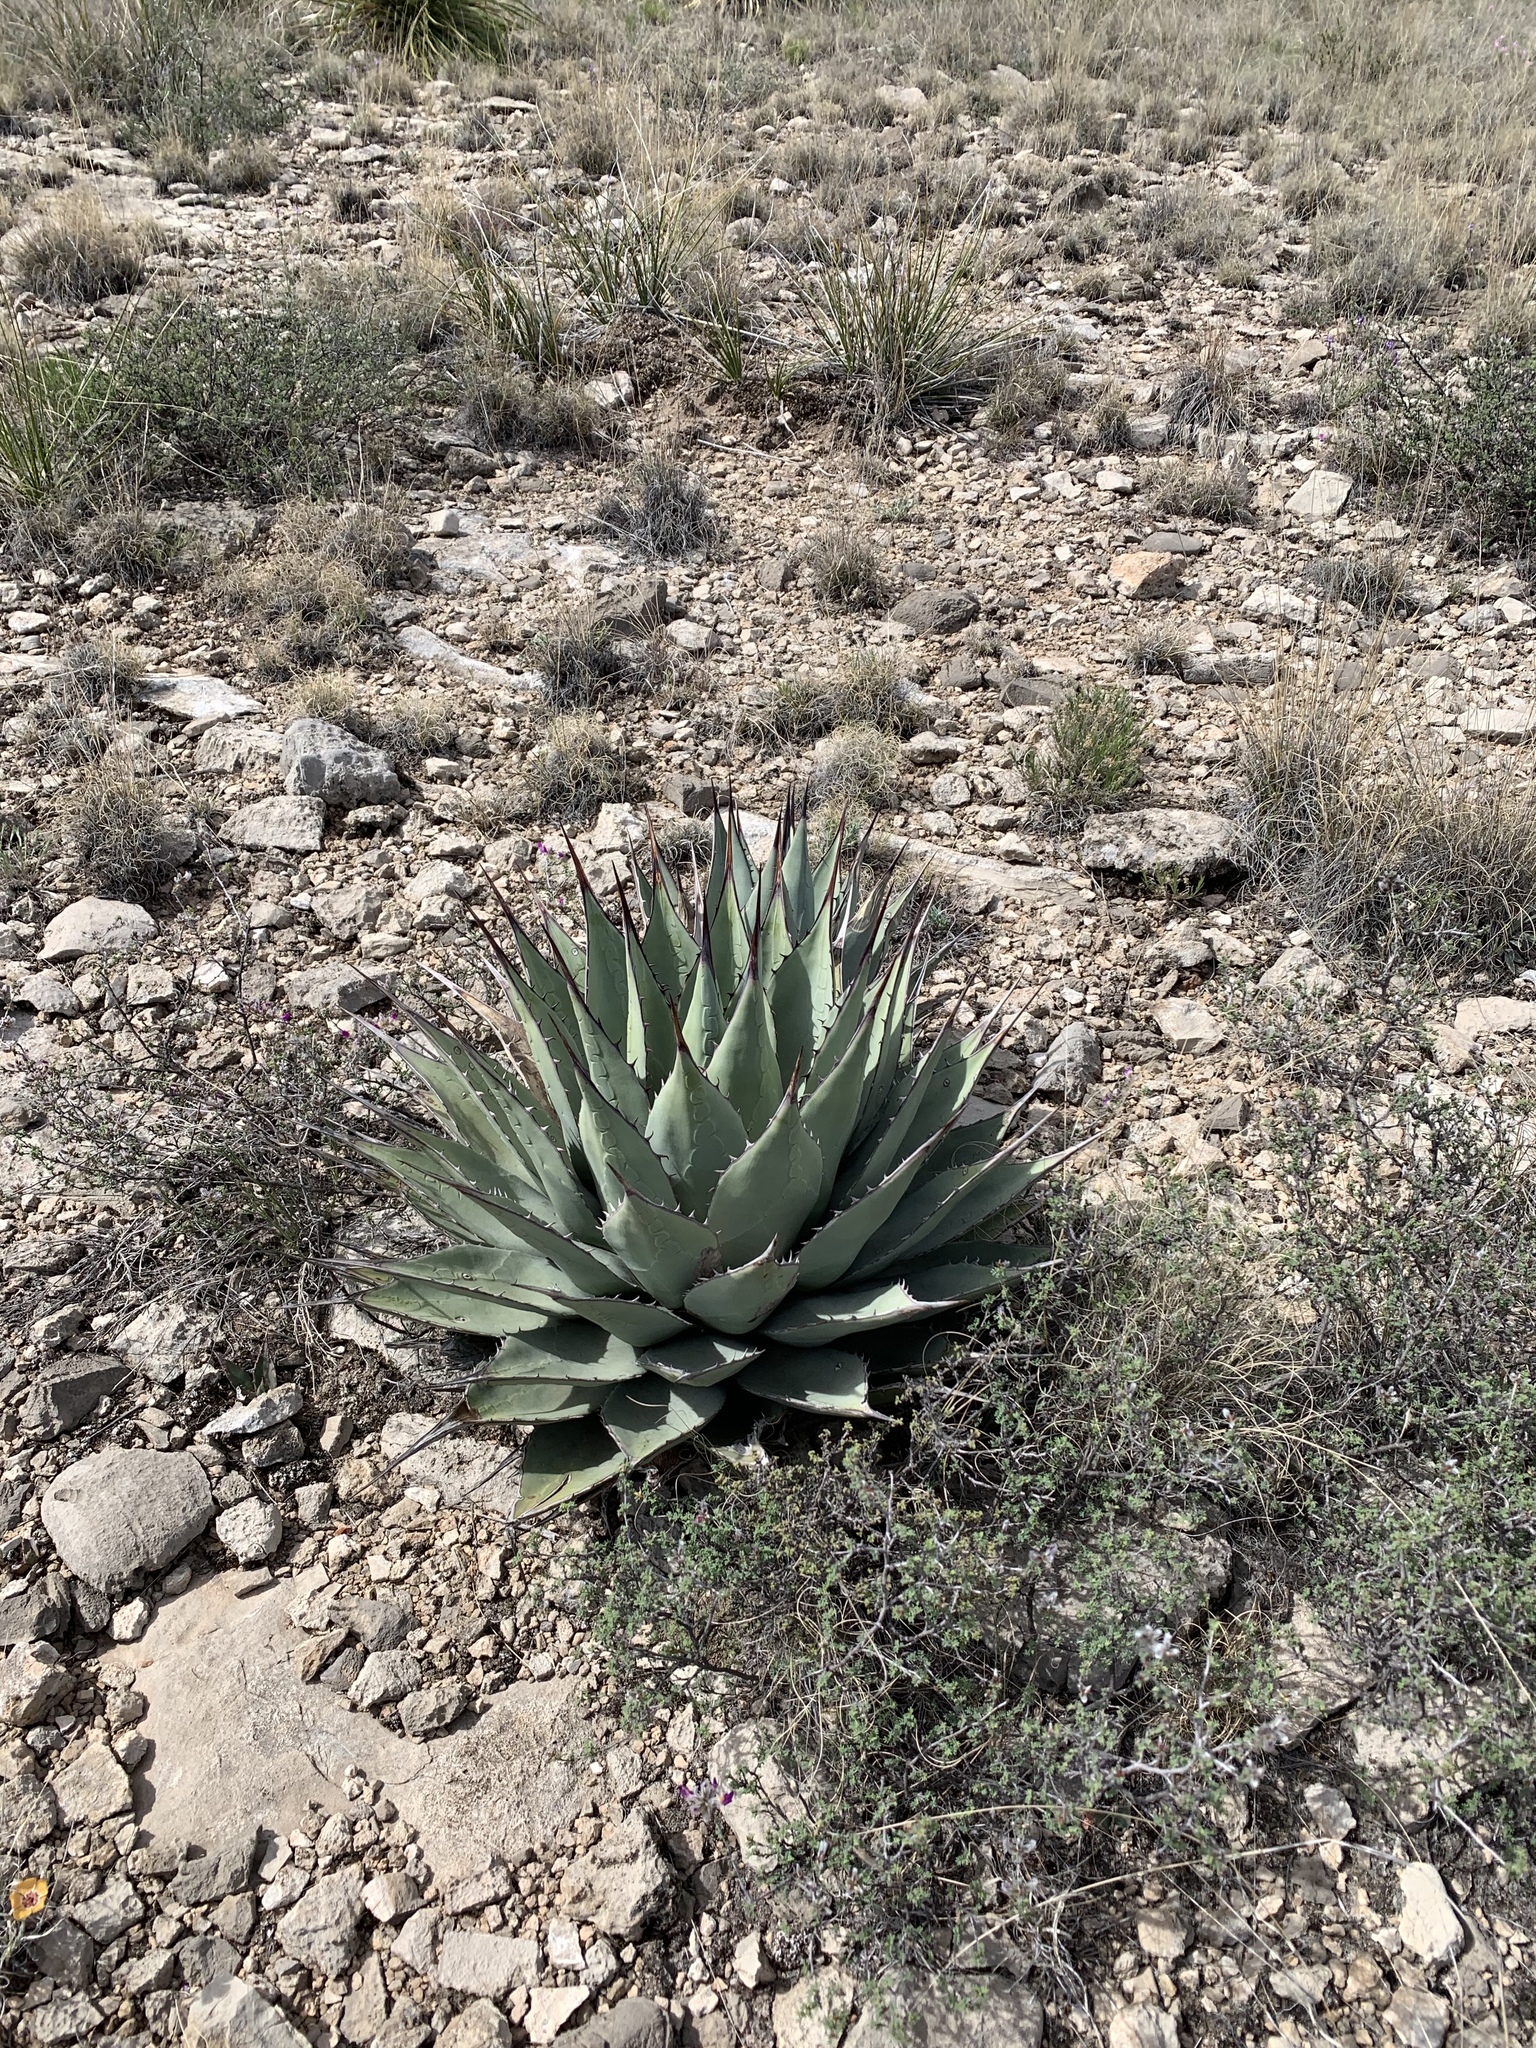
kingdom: Plantae
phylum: Tracheophyta
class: Liliopsida
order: Asparagales
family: Asparagaceae
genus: Agave
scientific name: Agave parryi
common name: Parry's agave
